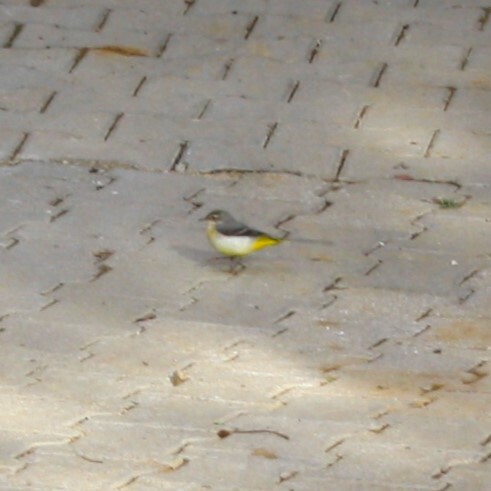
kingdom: Animalia
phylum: Chordata
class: Aves
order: Passeriformes
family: Motacillidae
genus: Motacilla
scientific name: Motacilla cinerea
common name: Grey wagtail
